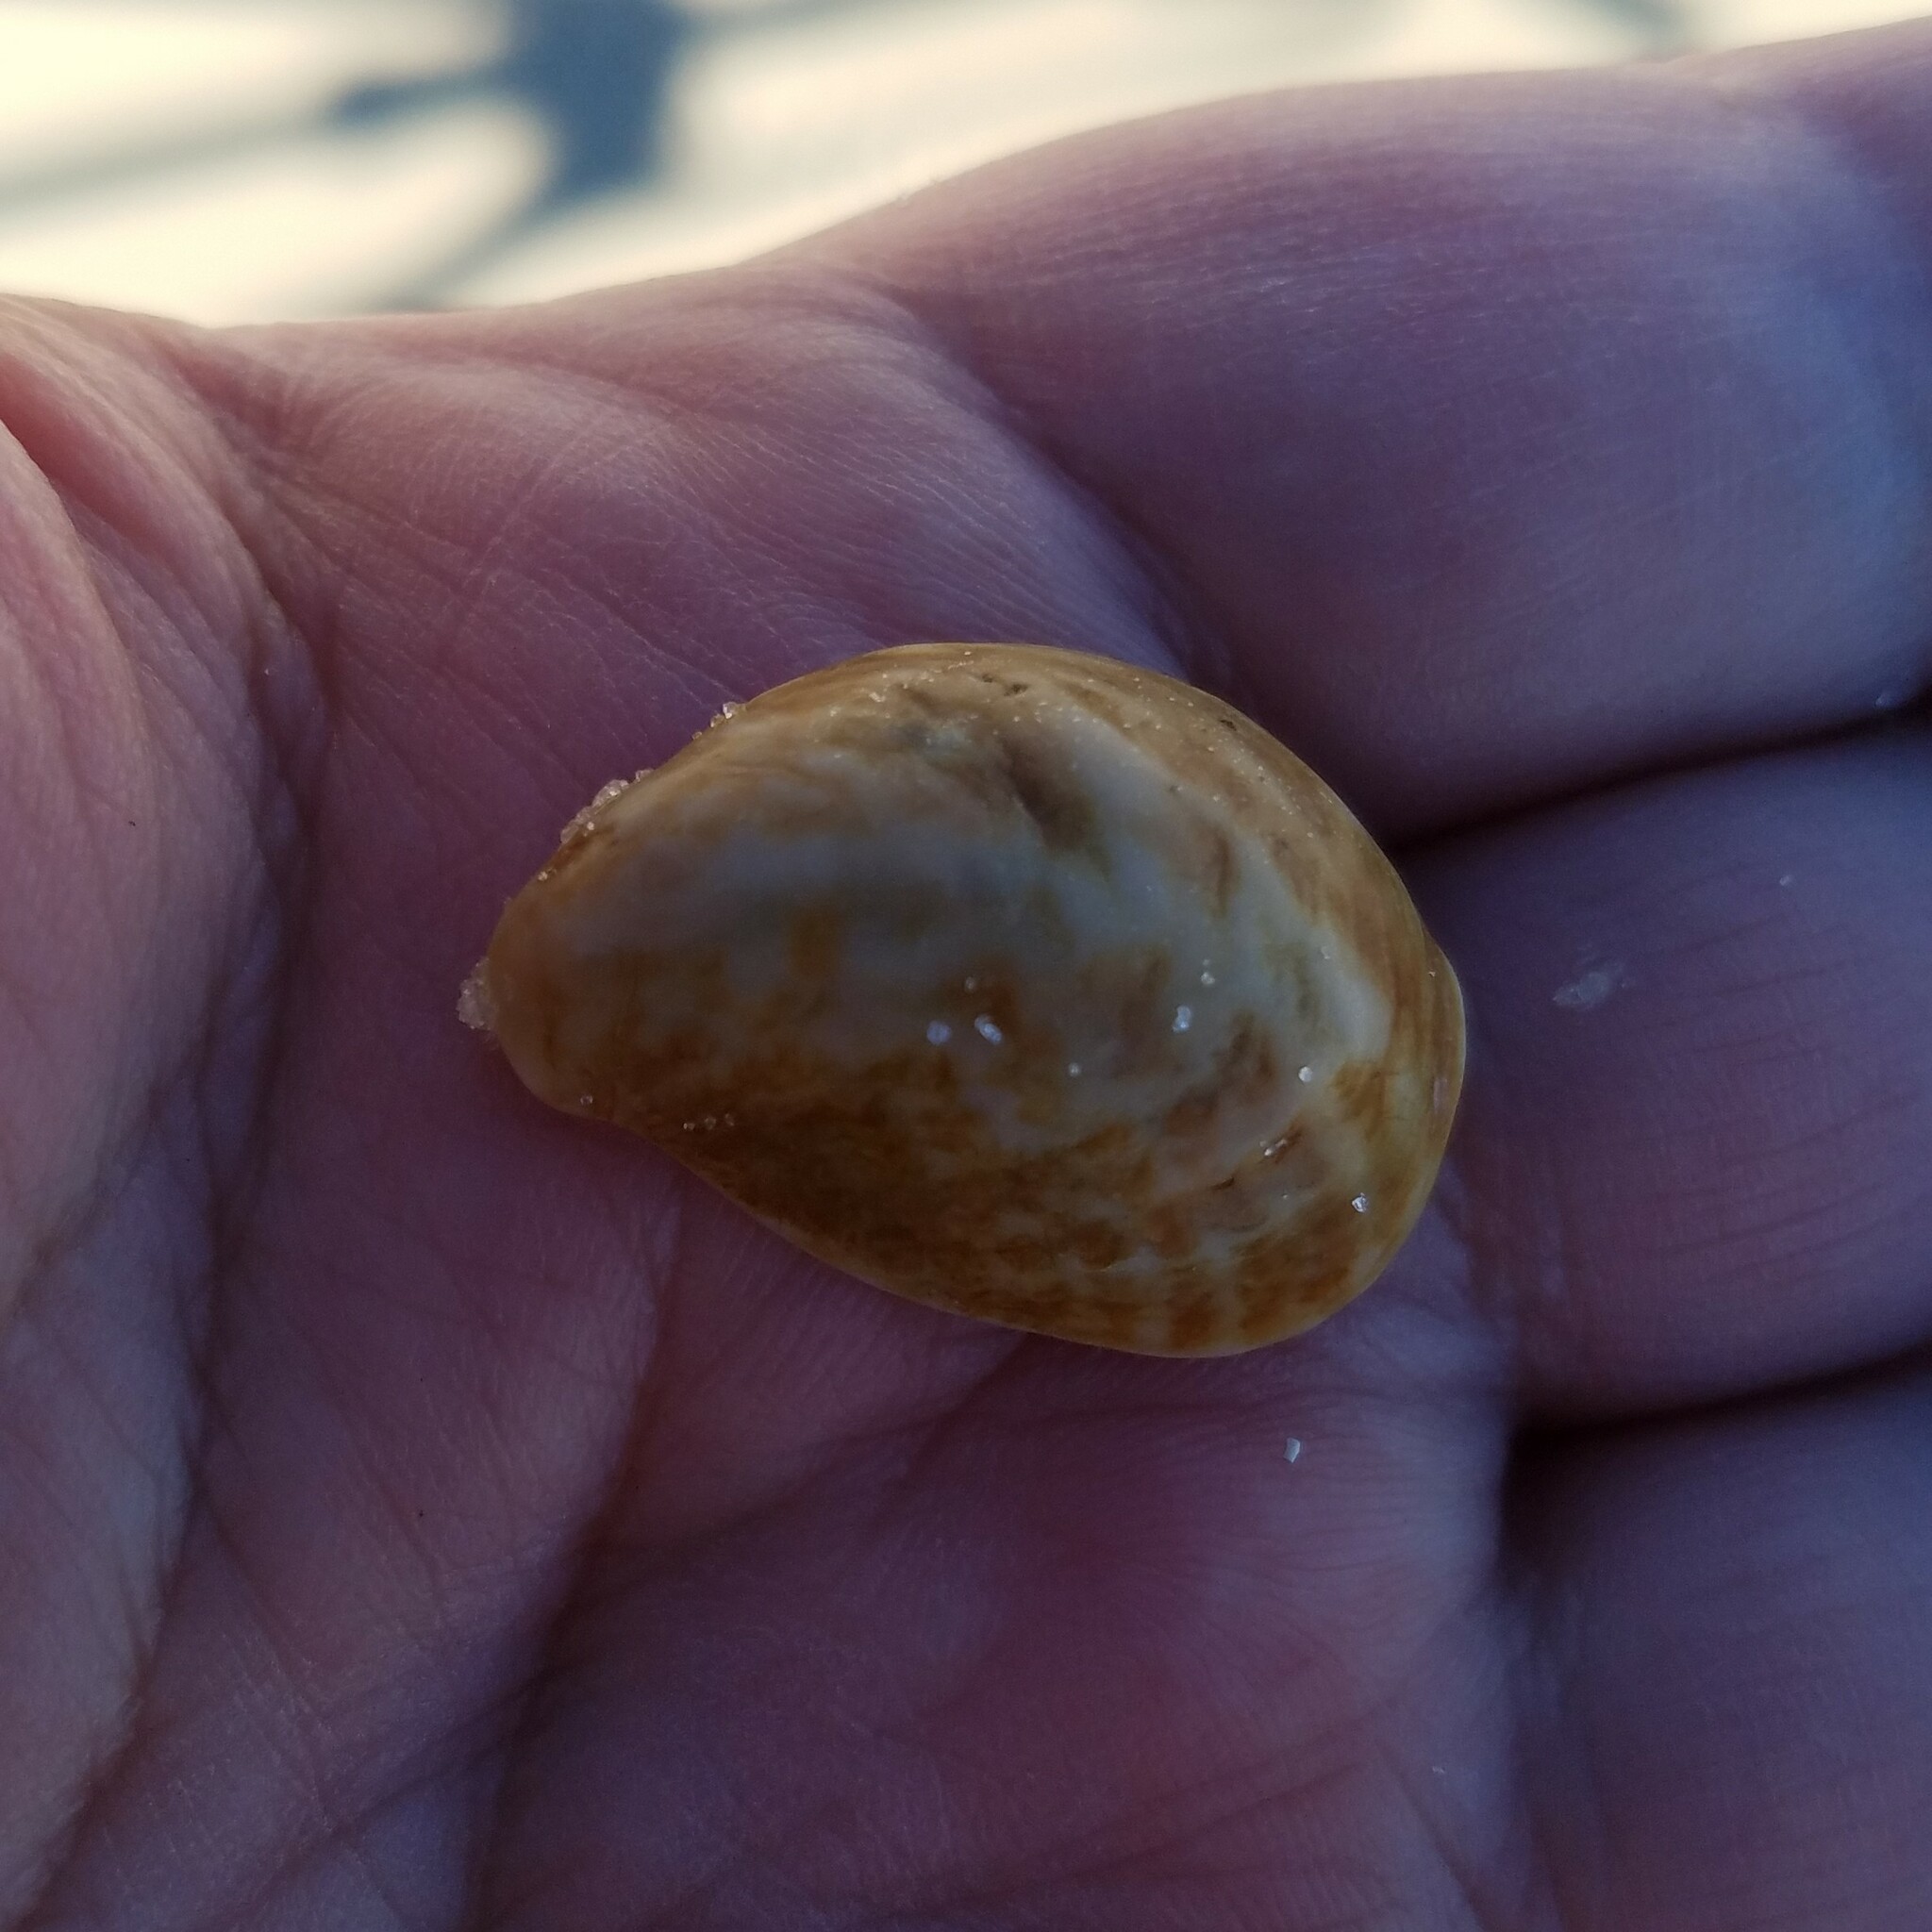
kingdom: Animalia
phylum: Mollusca
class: Gastropoda
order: Littorinimorpha
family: Calyptraeidae
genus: Crepidula
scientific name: Crepidula fornicata
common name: Slipper limpet
